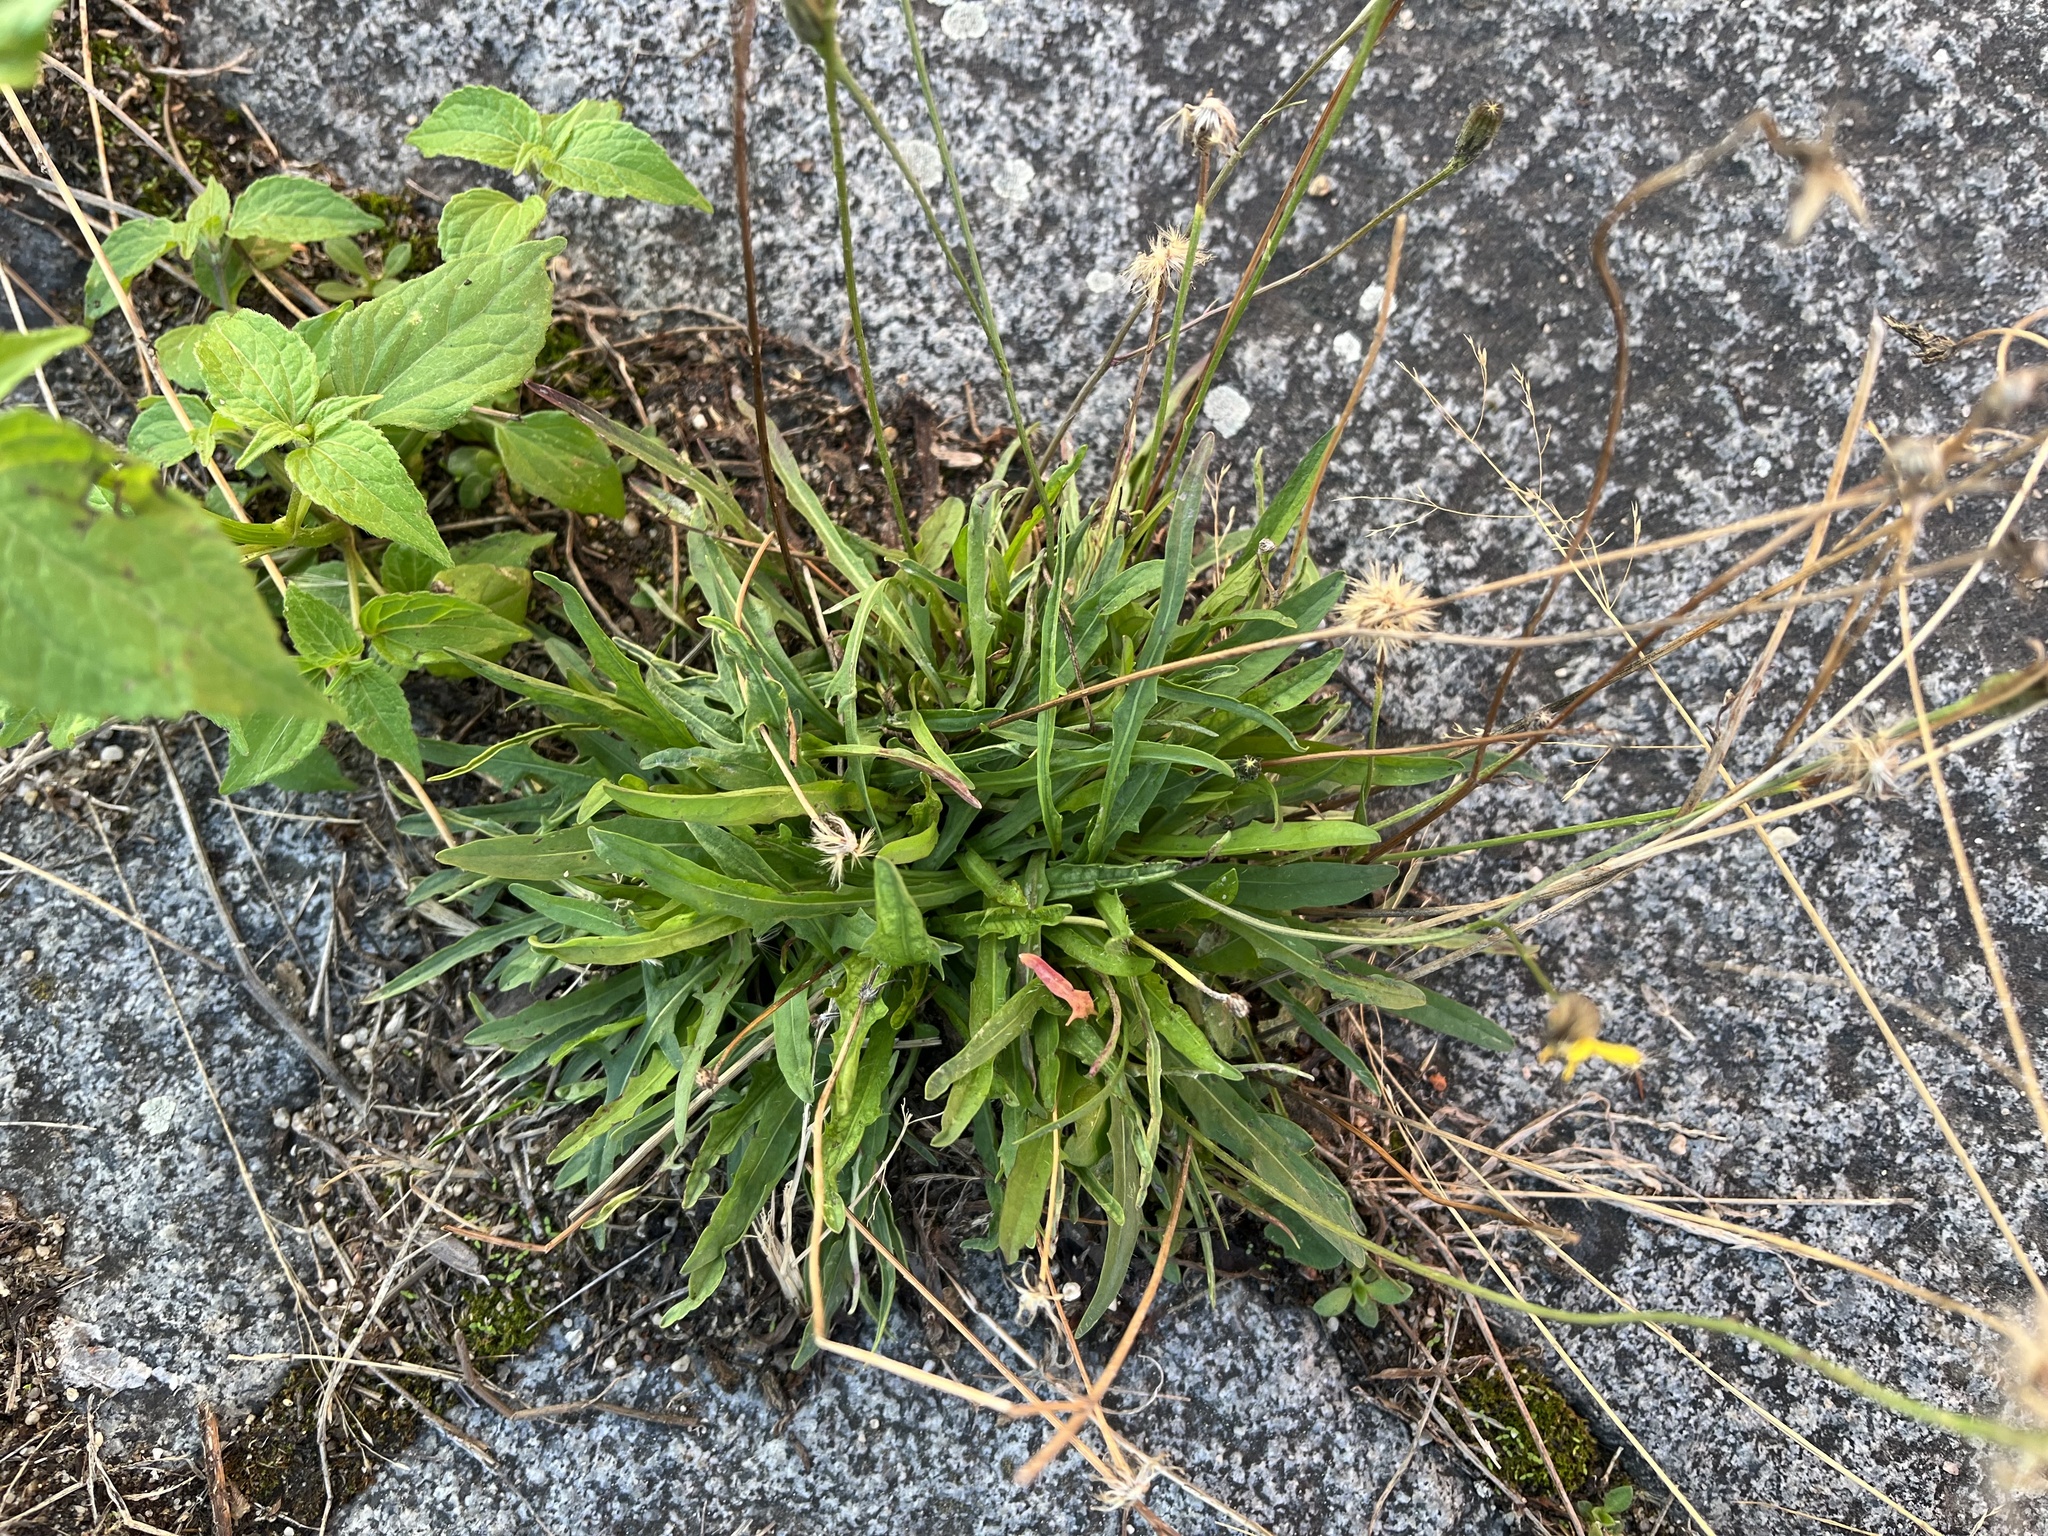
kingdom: Plantae
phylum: Tracheophyta
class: Magnoliopsida
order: Asterales
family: Asteraceae
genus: Scorzoneroides
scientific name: Scorzoneroides autumnalis
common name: Autumn hawkbit
